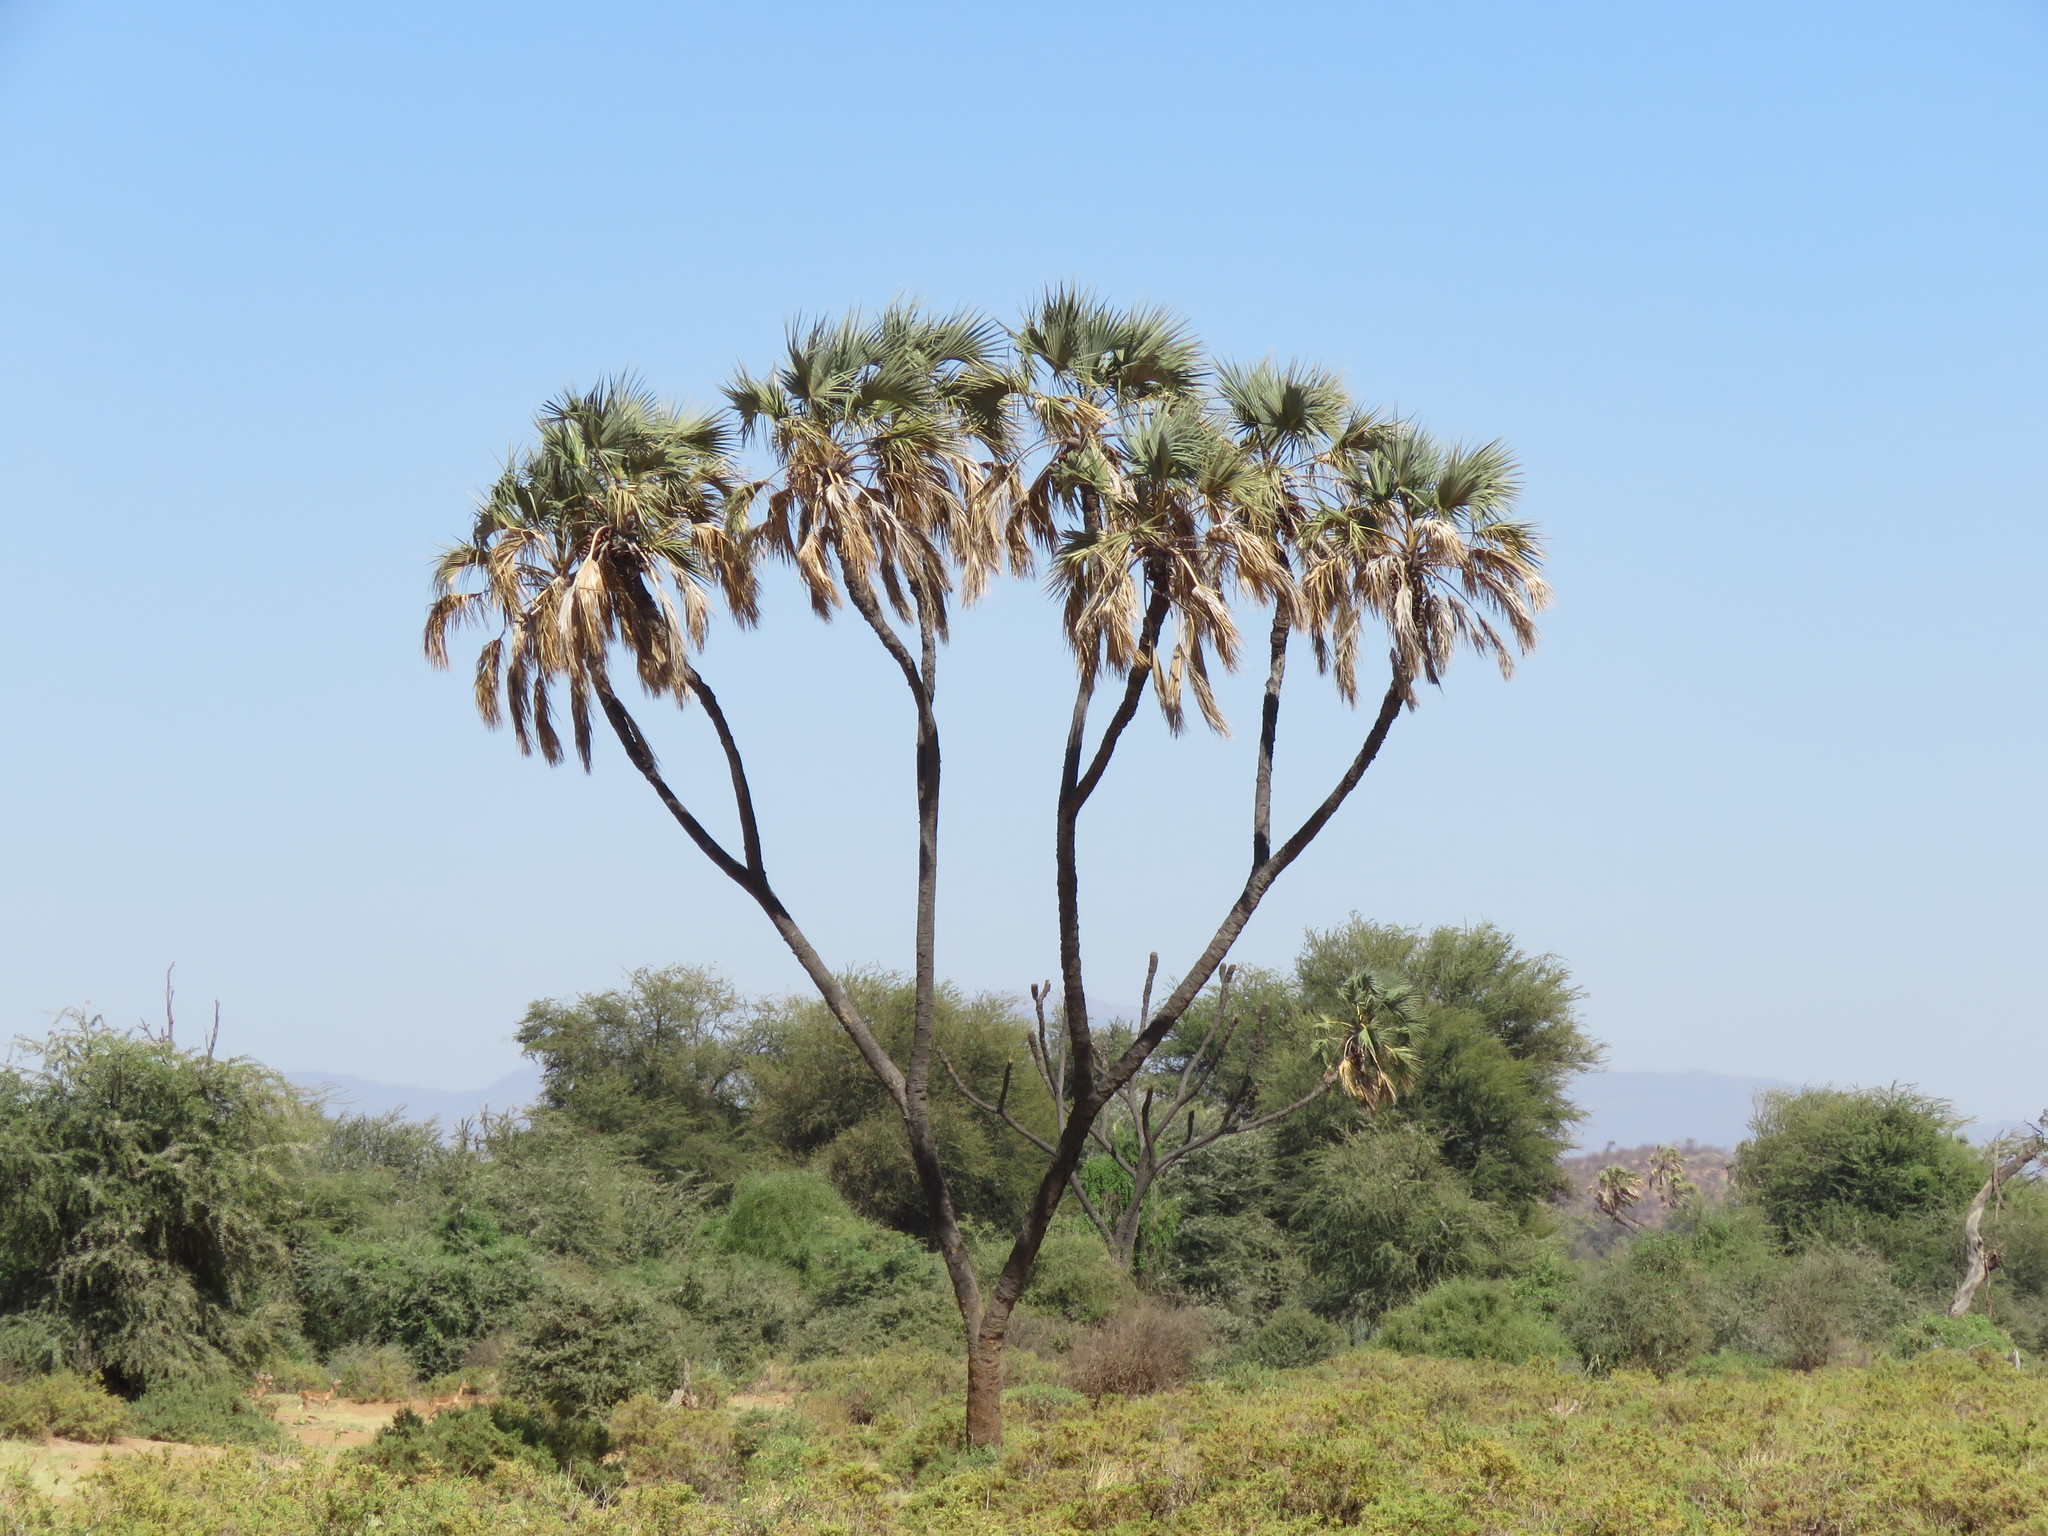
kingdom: Plantae
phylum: Tracheophyta
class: Liliopsida
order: Arecales
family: Arecaceae
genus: Hyphaene
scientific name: Hyphaene compressa
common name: Doum palm
